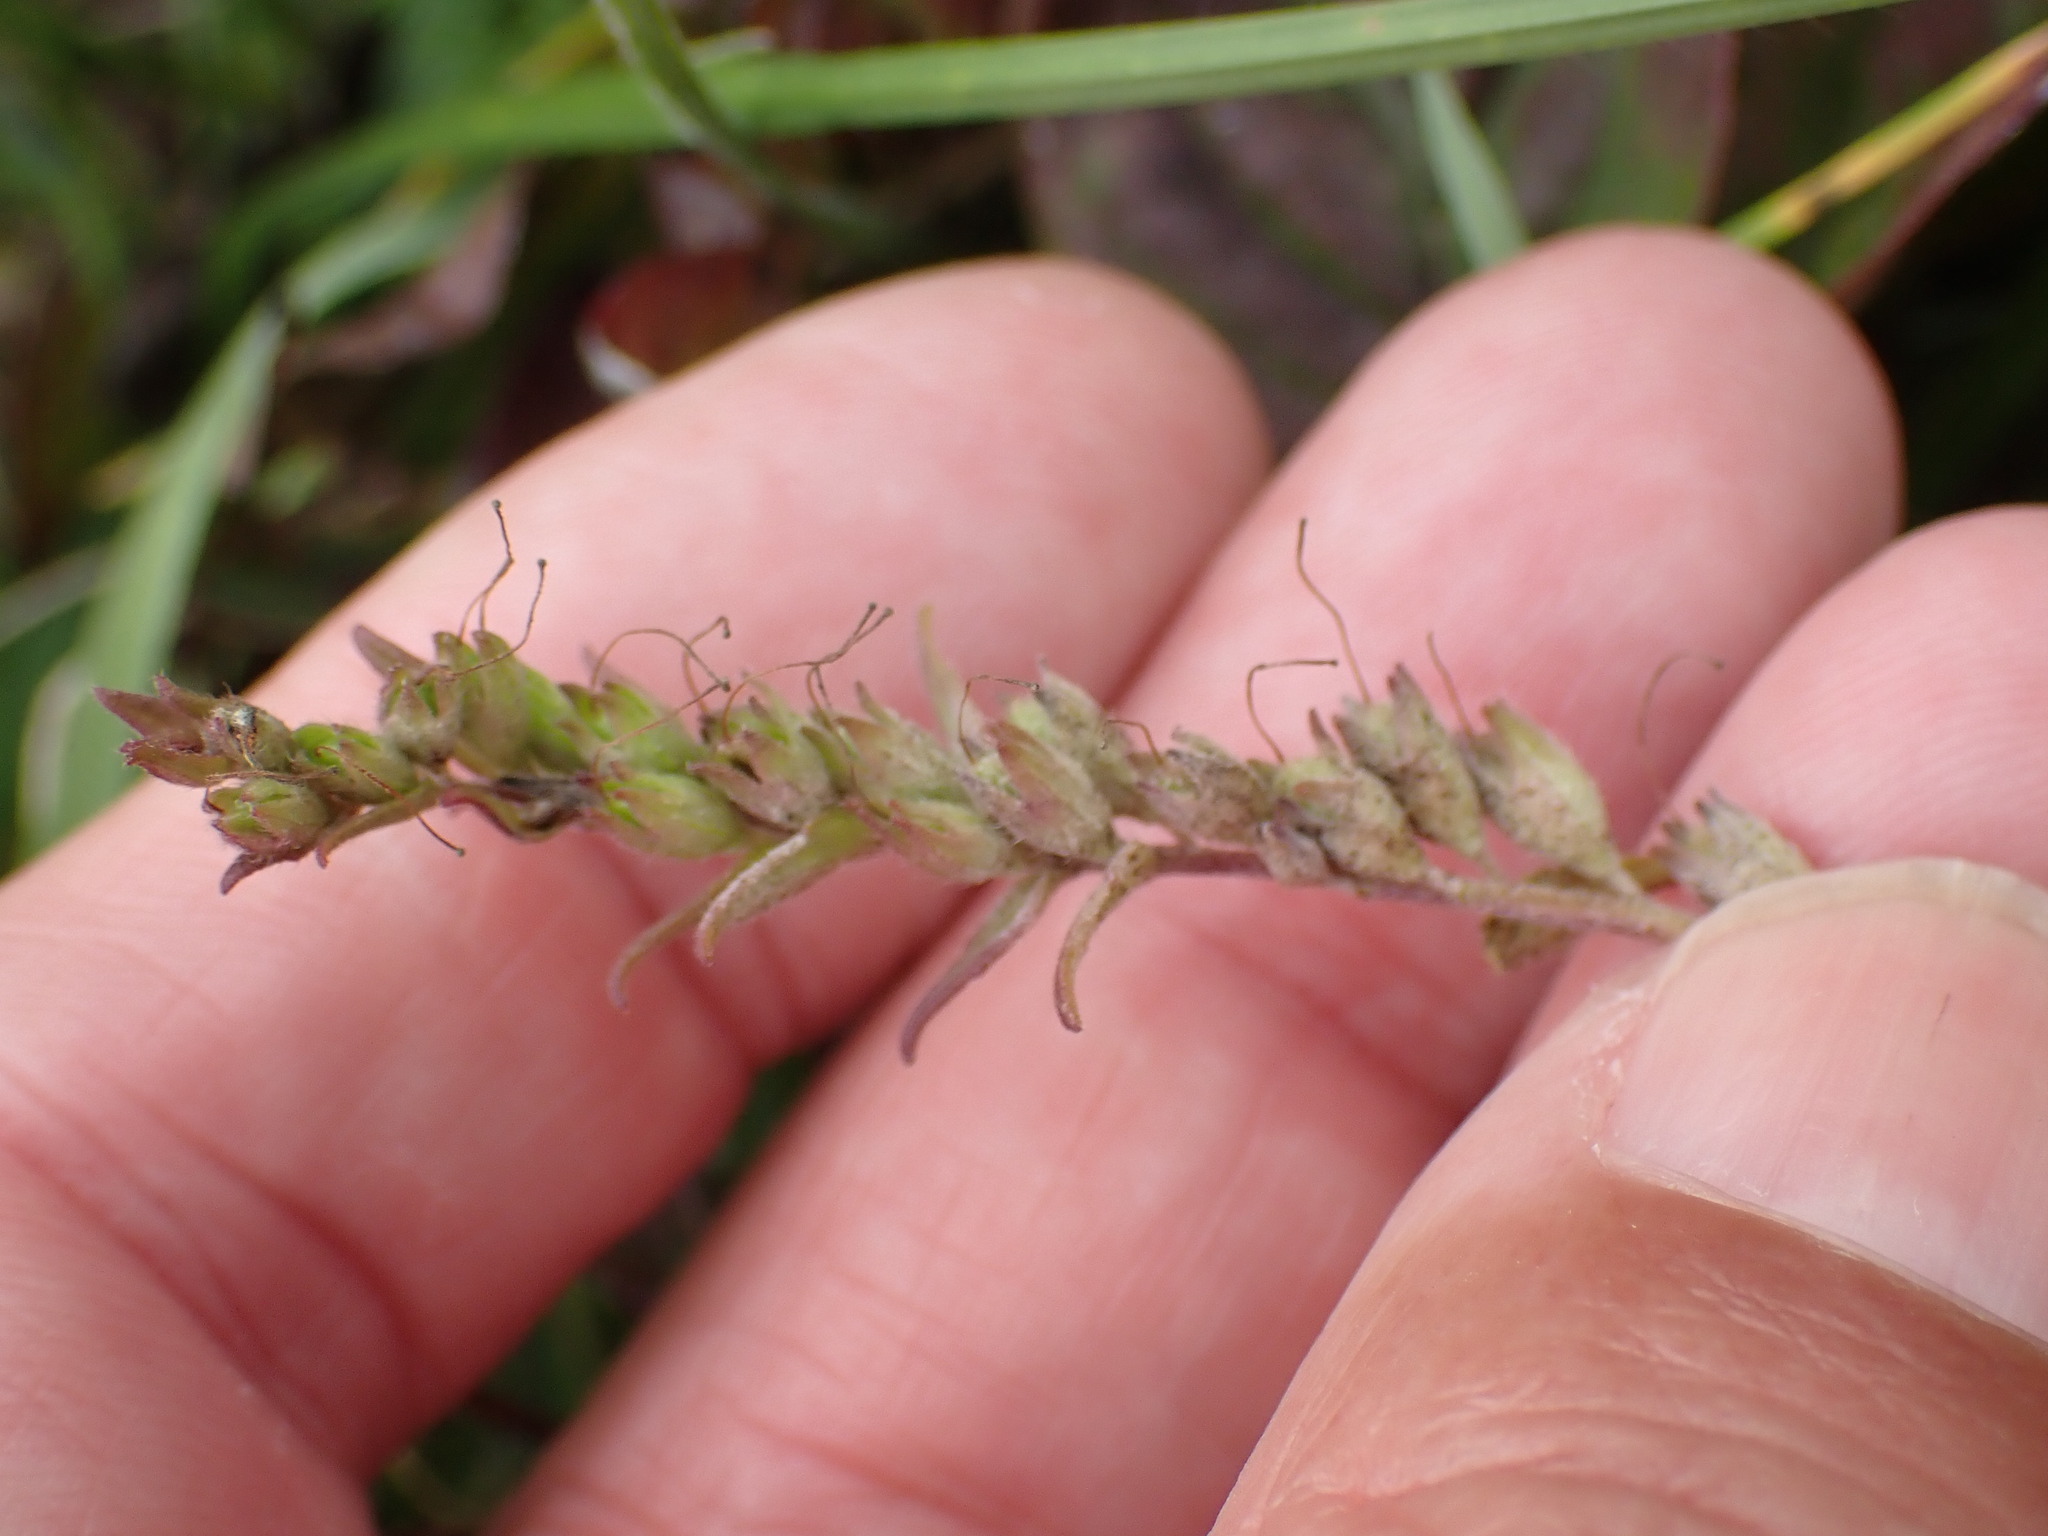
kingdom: Plantae
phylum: Tracheophyta
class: Magnoliopsida
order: Lamiales
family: Orobanchaceae
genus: Odontites
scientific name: Odontites vulgaris
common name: Broomrape
